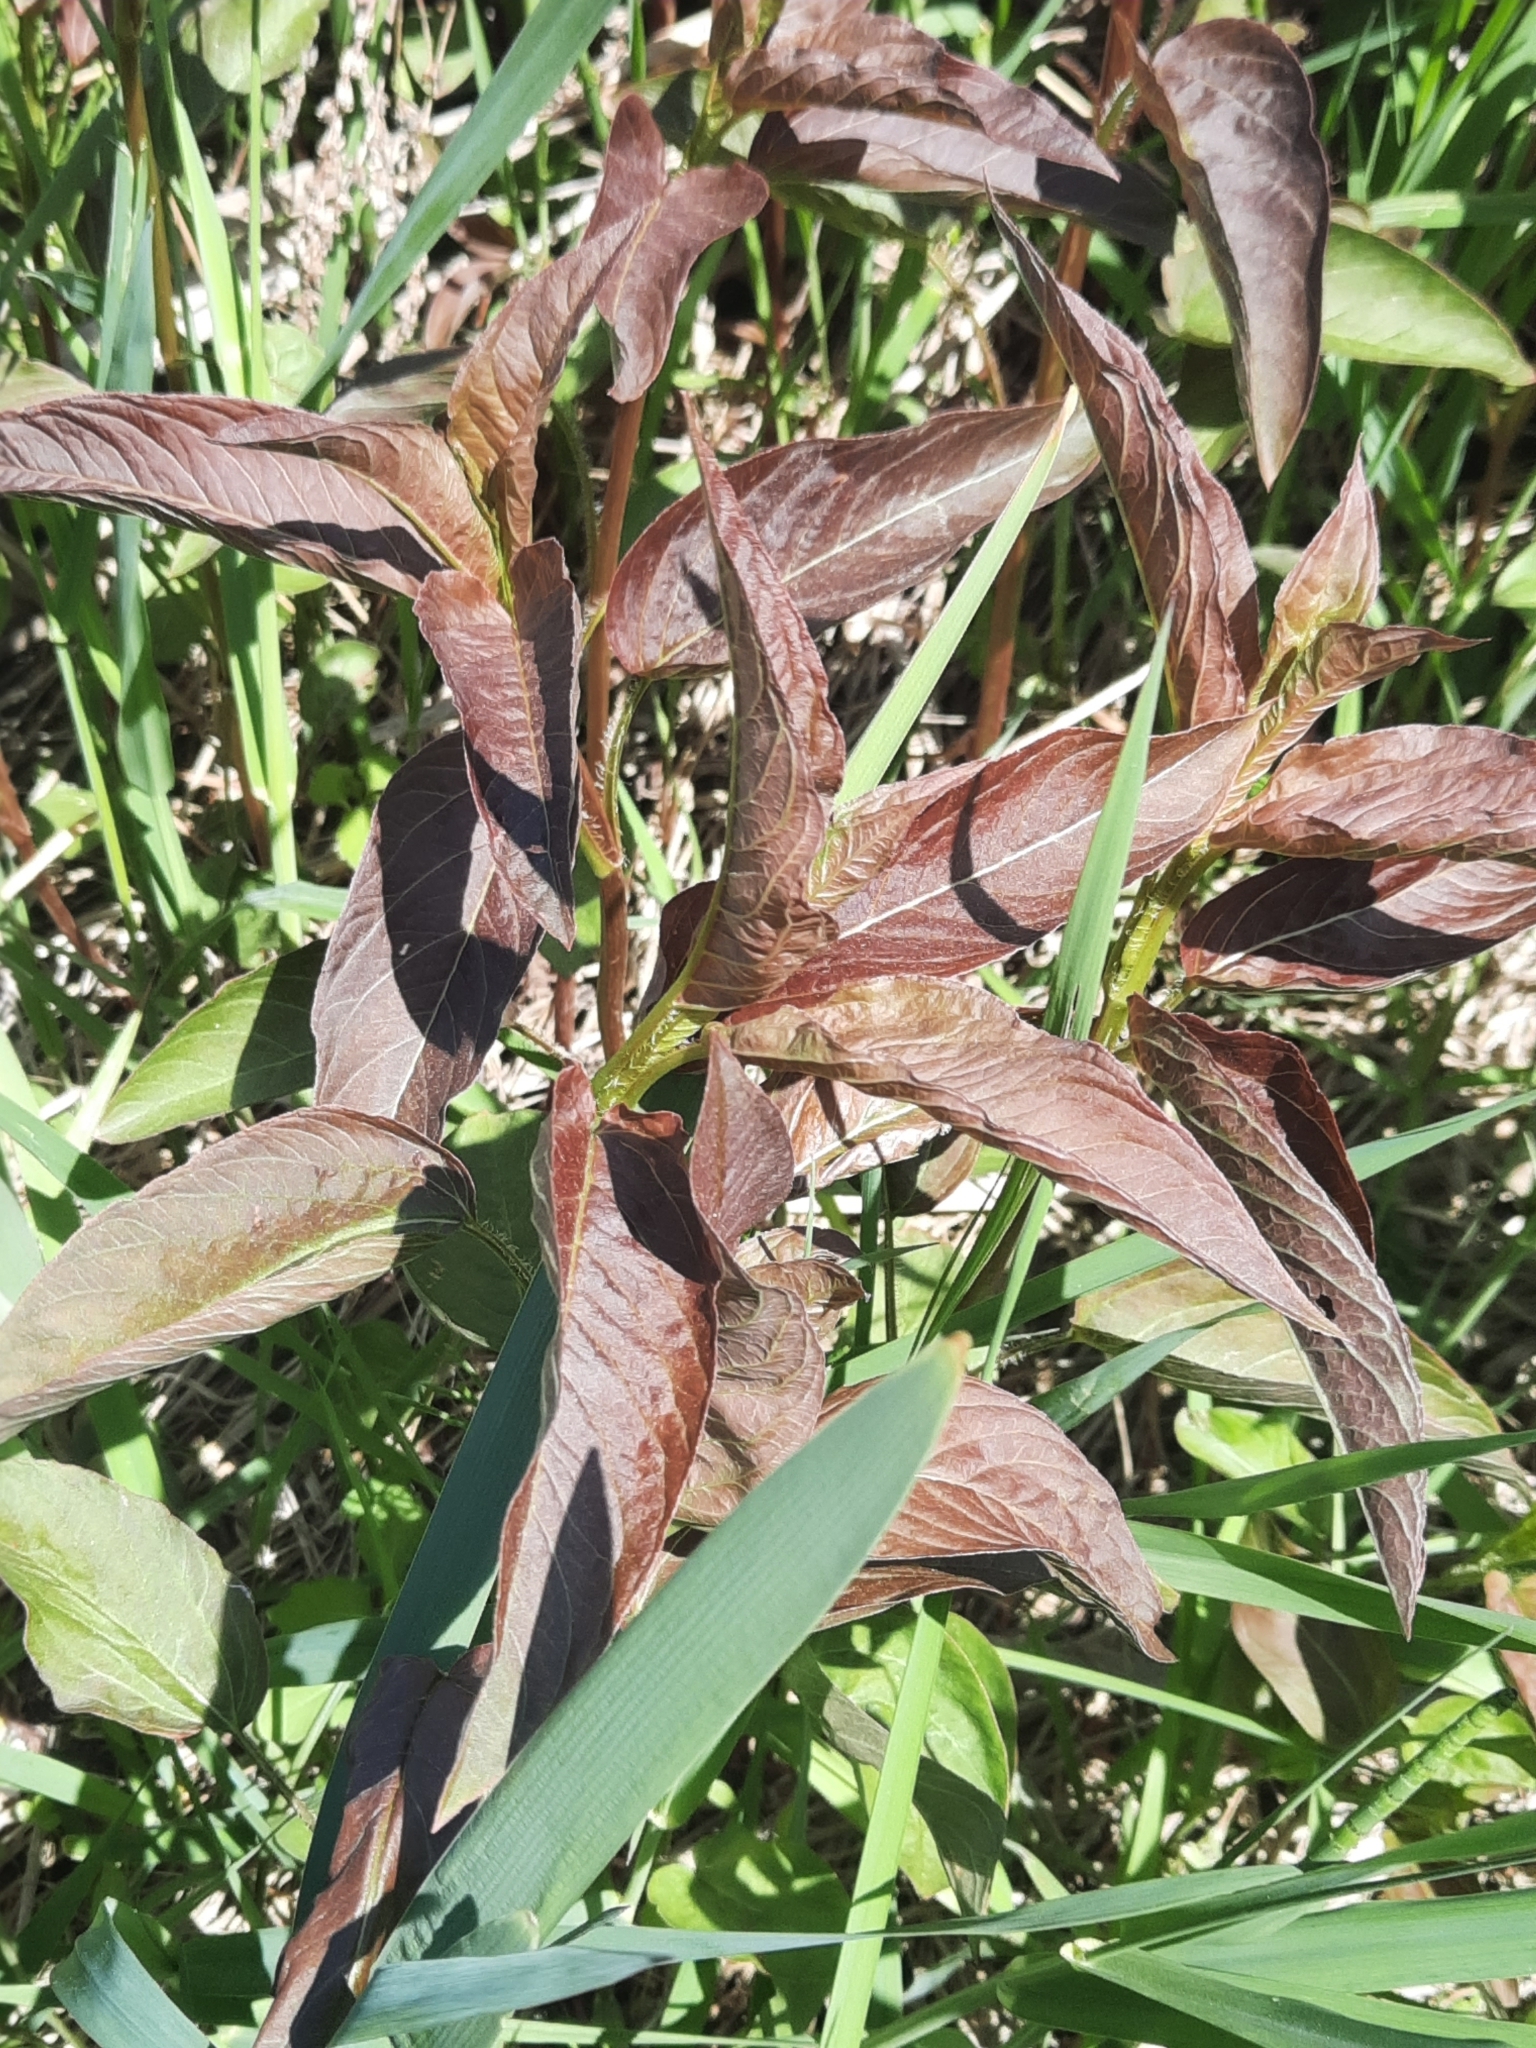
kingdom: Plantae
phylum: Tracheophyta
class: Magnoliopsida
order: Ericales
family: Primulaceae
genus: Lysimachia
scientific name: Lysimachia ciliata
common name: Fringed loosestrife
